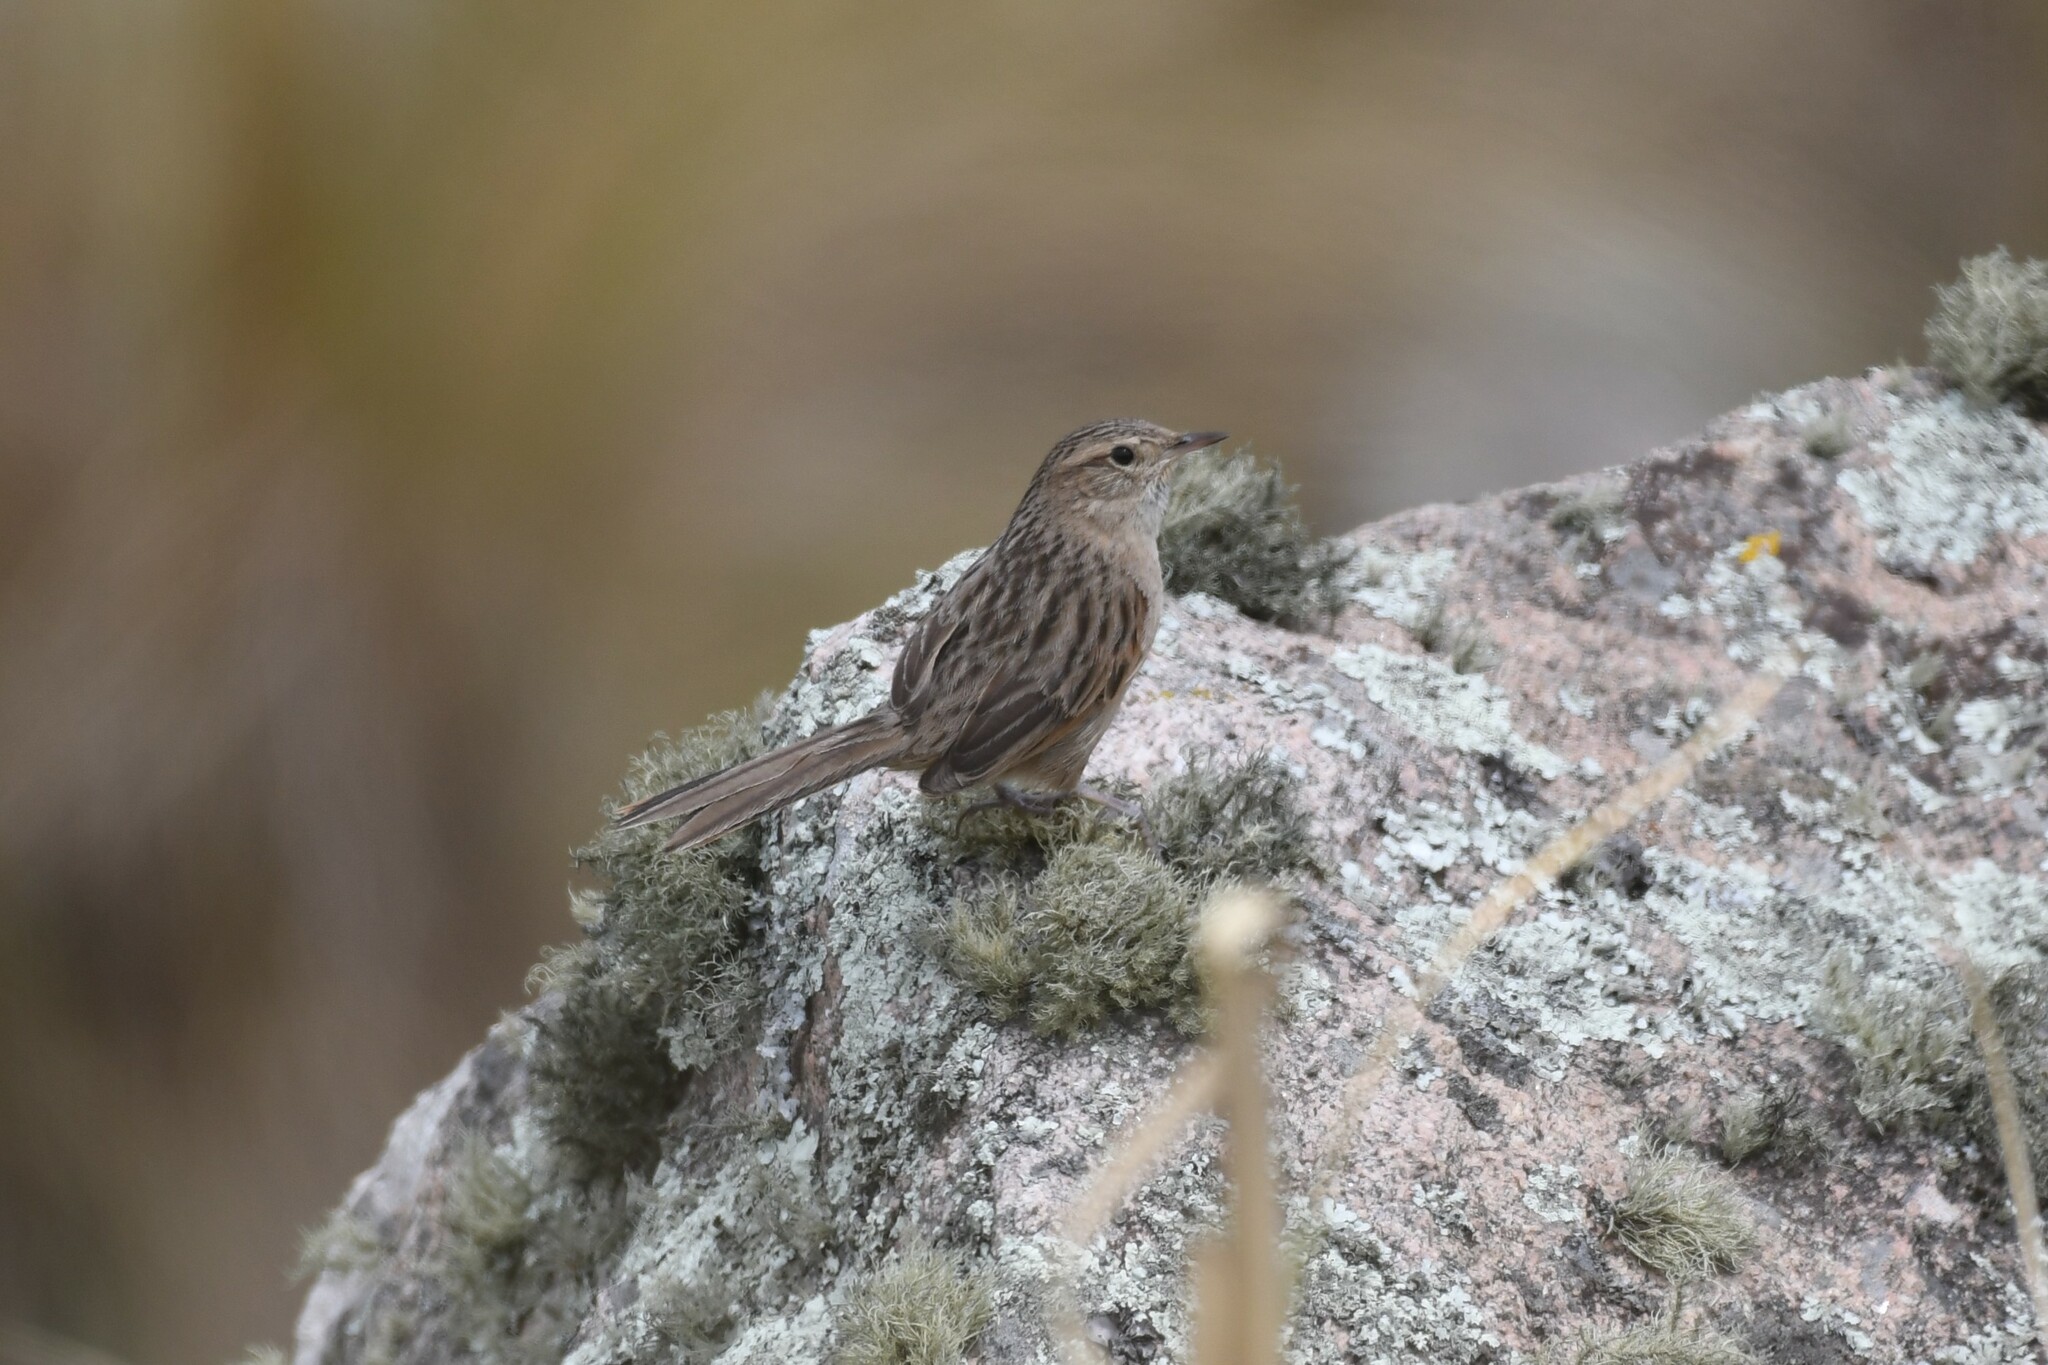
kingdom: Animalia
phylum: Chordata
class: Aves
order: Passeriformes
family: Furnariidae
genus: Asthenes
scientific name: Asthenes wyatti
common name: Streak-backed canastero
